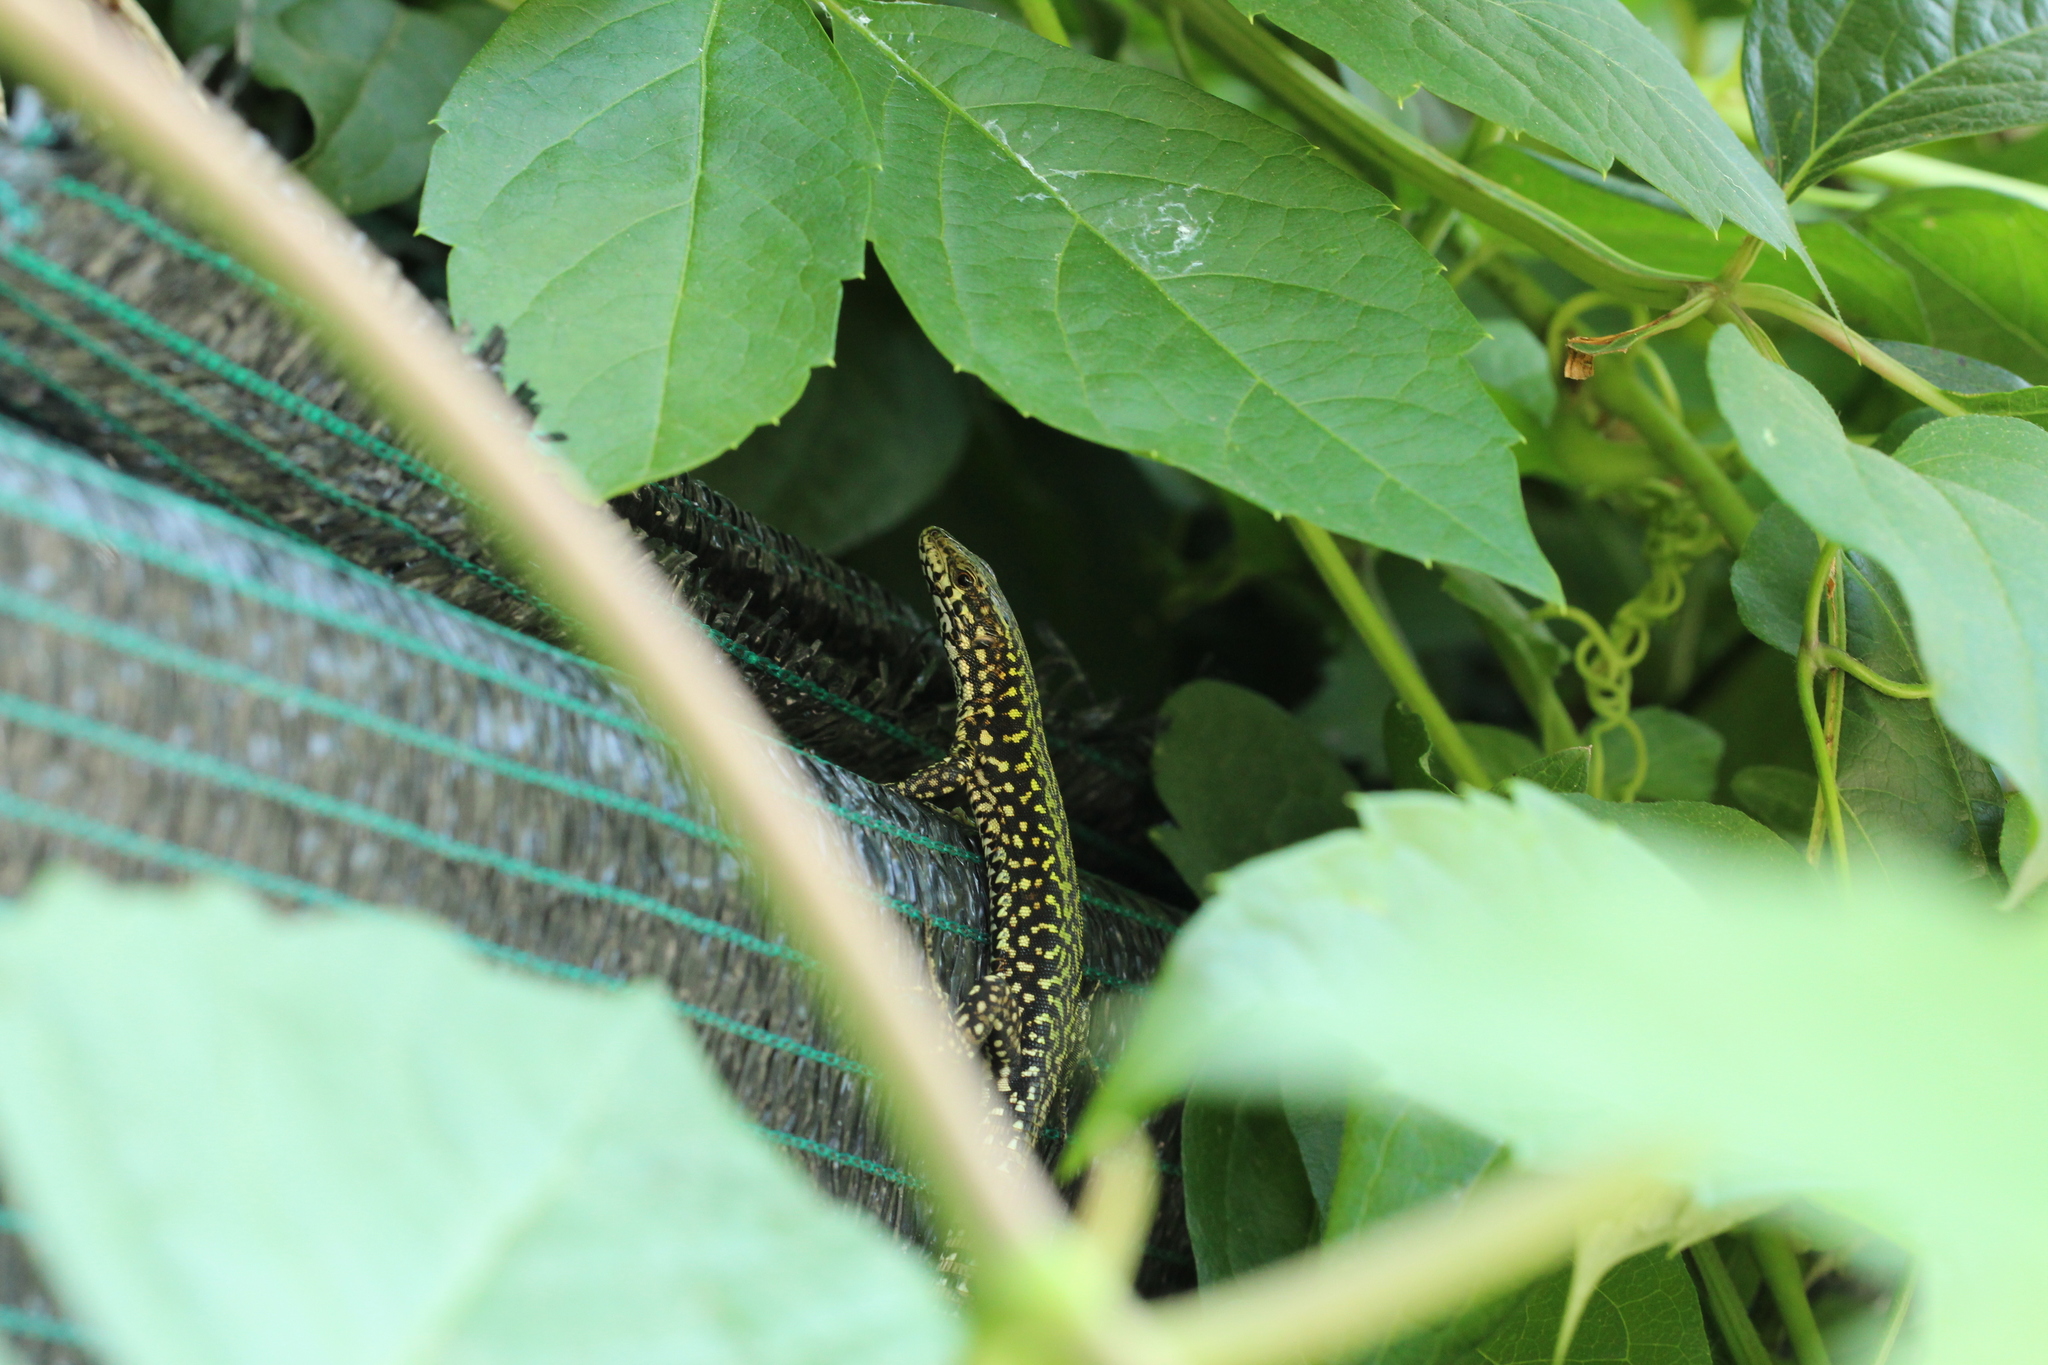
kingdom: Animalia
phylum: Chordata
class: Squamata
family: Lacertidae
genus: Podarcis
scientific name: Podarcis muralis
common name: Common wall lizard
